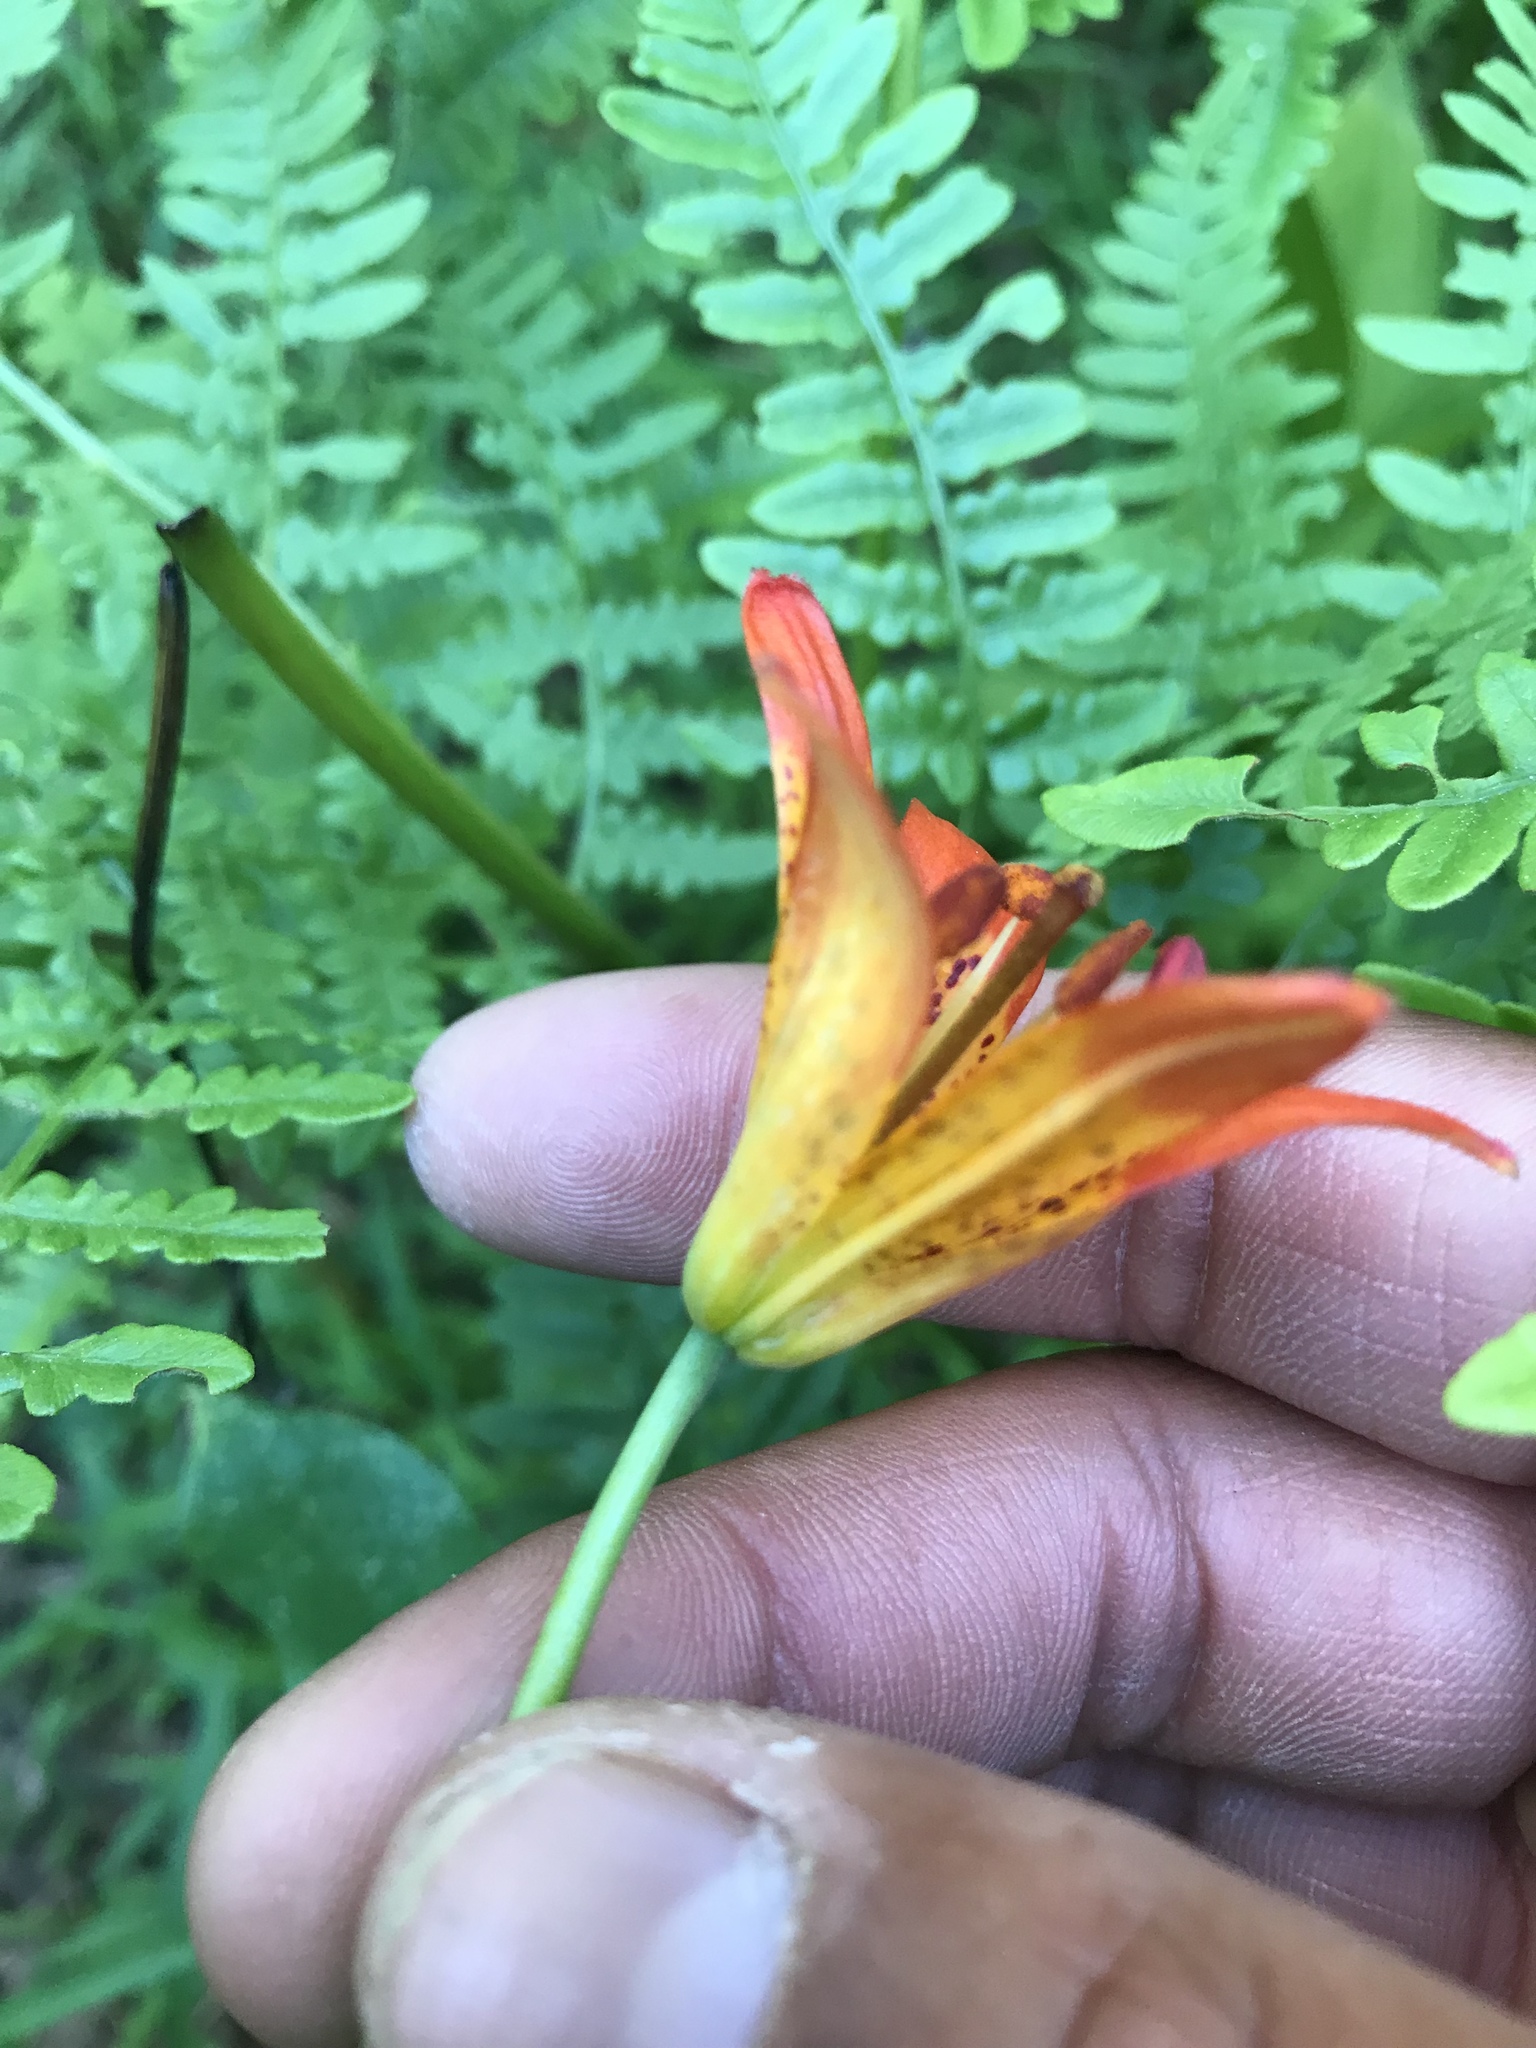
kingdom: Plantae
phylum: Tracheophyta
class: Liliopsida
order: Liliales
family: Liliaceae
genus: Lilium
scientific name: Lilium parvum
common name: Alpine lily
